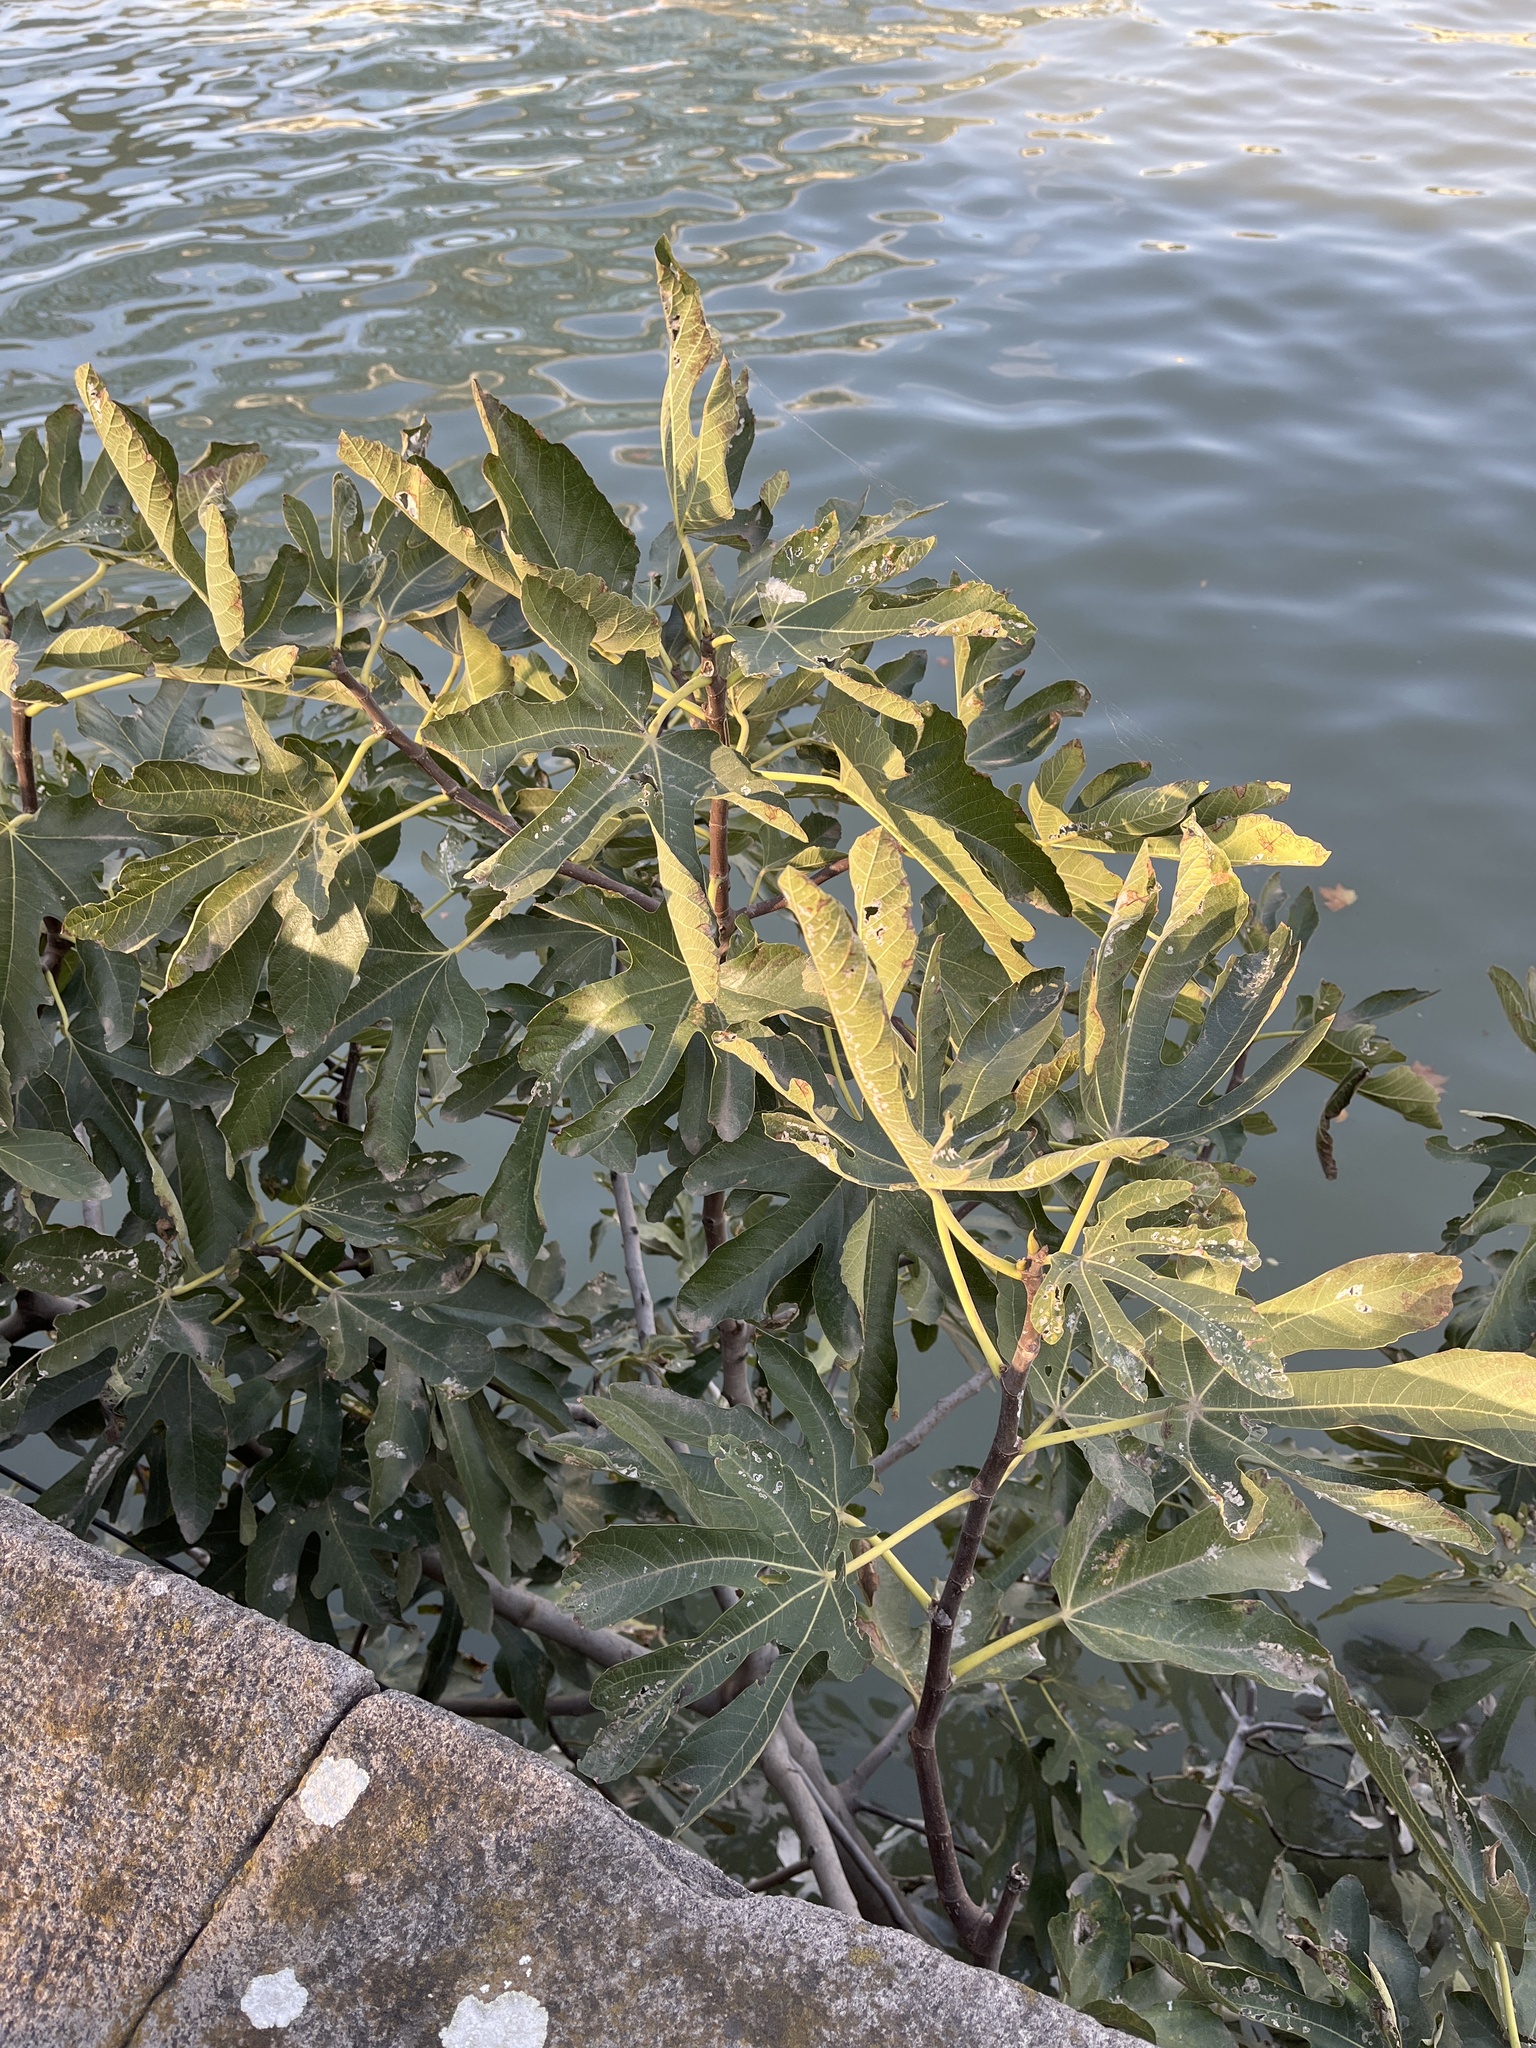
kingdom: Plantae
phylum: Tracheophyta
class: Magnoliopsida
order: Rosales
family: Moraceae
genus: Ficus
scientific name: Ficus carica
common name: Fig
